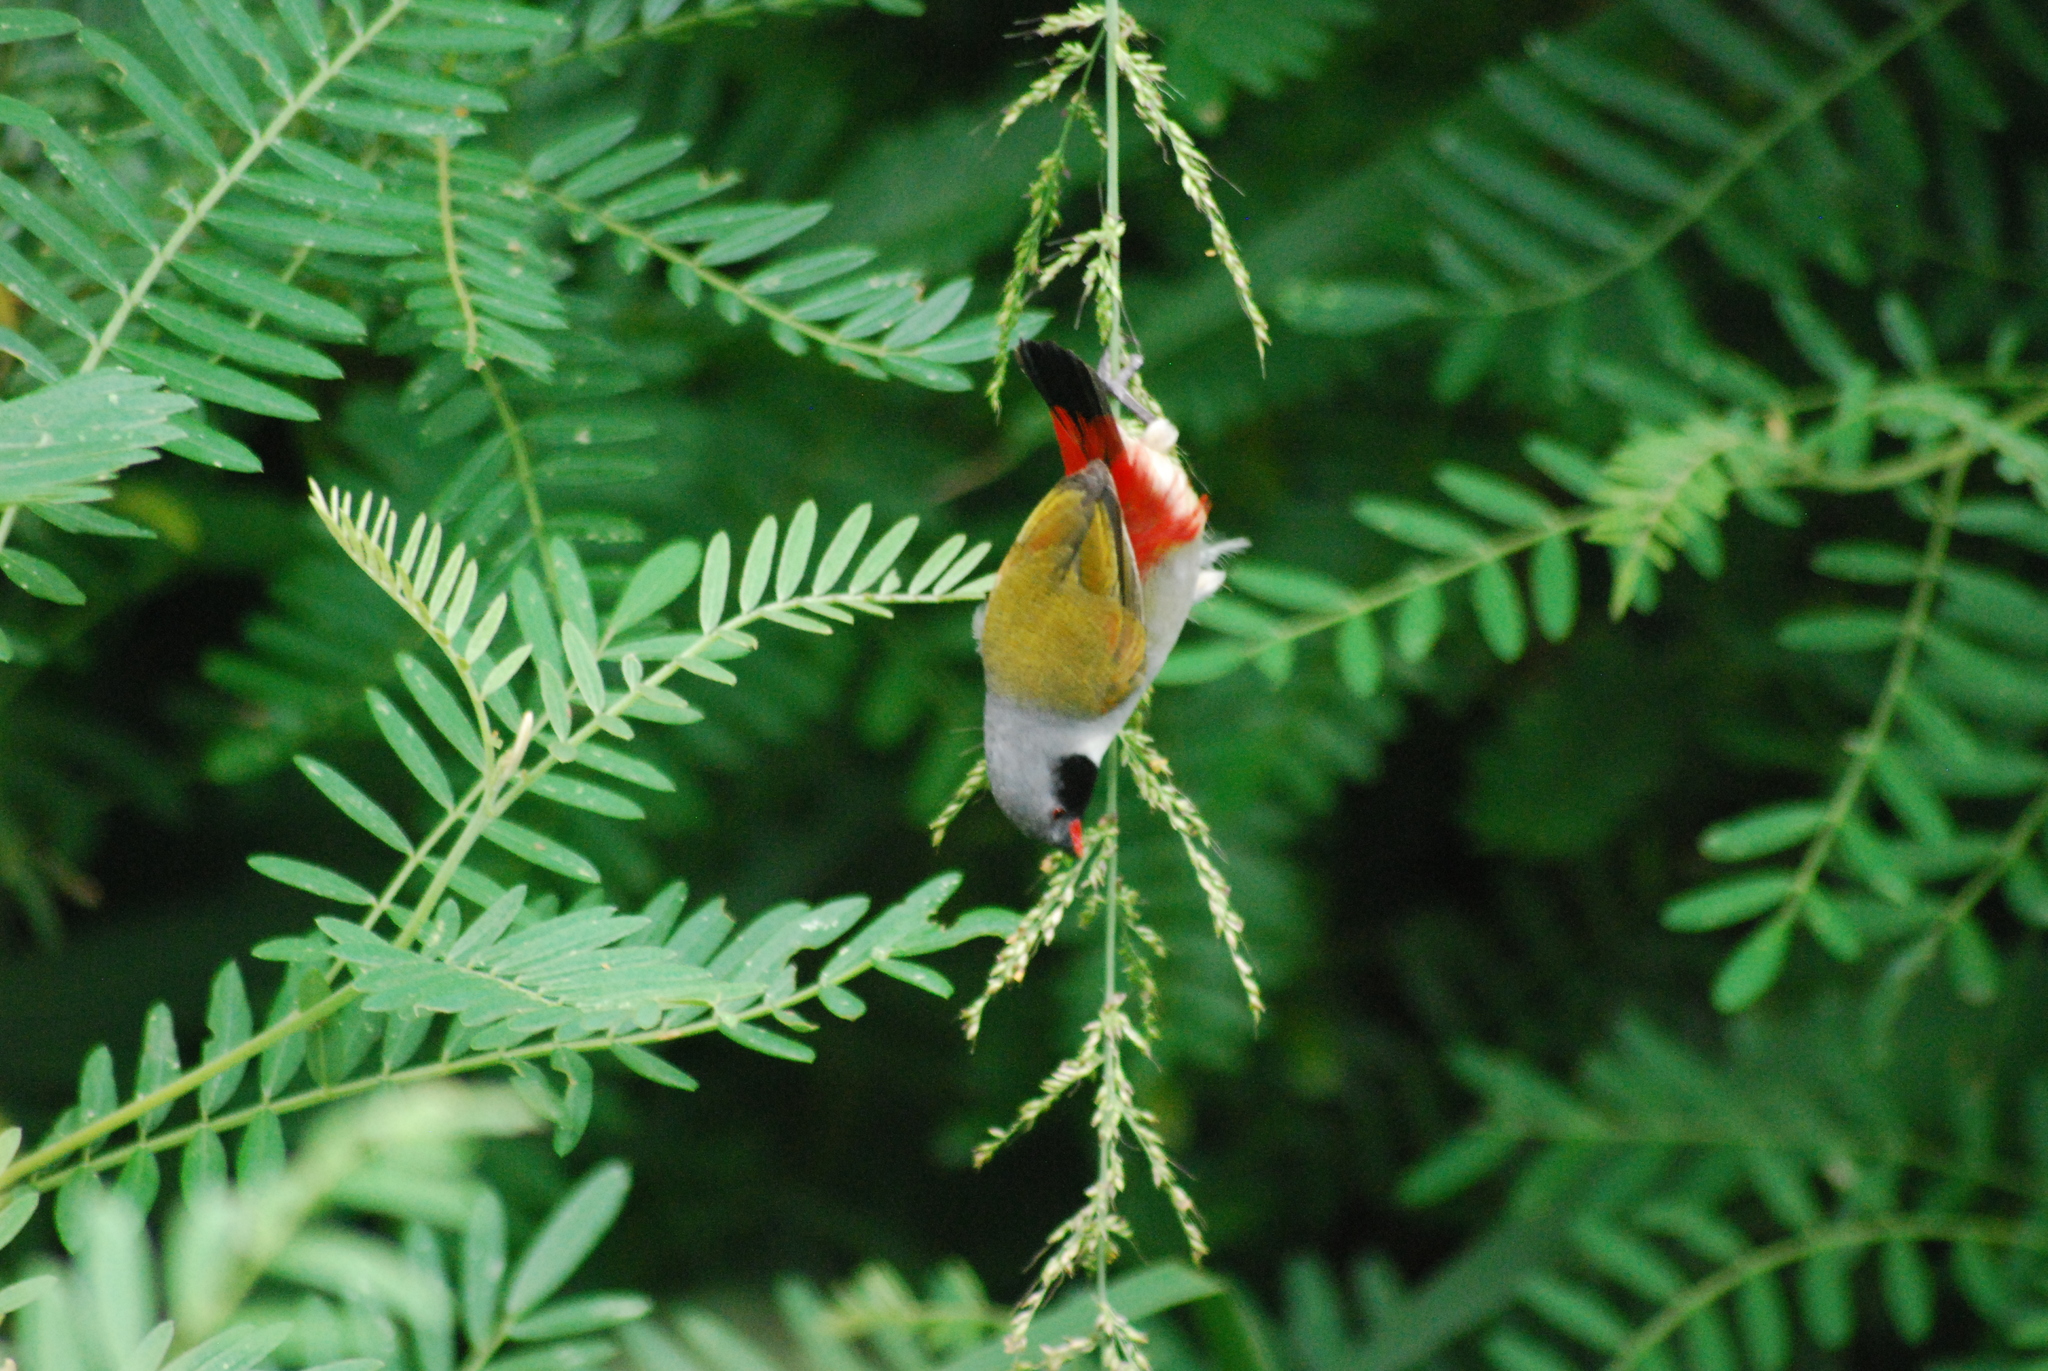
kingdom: Animalia
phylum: Chordata
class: Aves
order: Passeriformes
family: Estrildidae
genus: Coccopygia
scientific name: Coccopygia melanotis
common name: Swee waxbill
